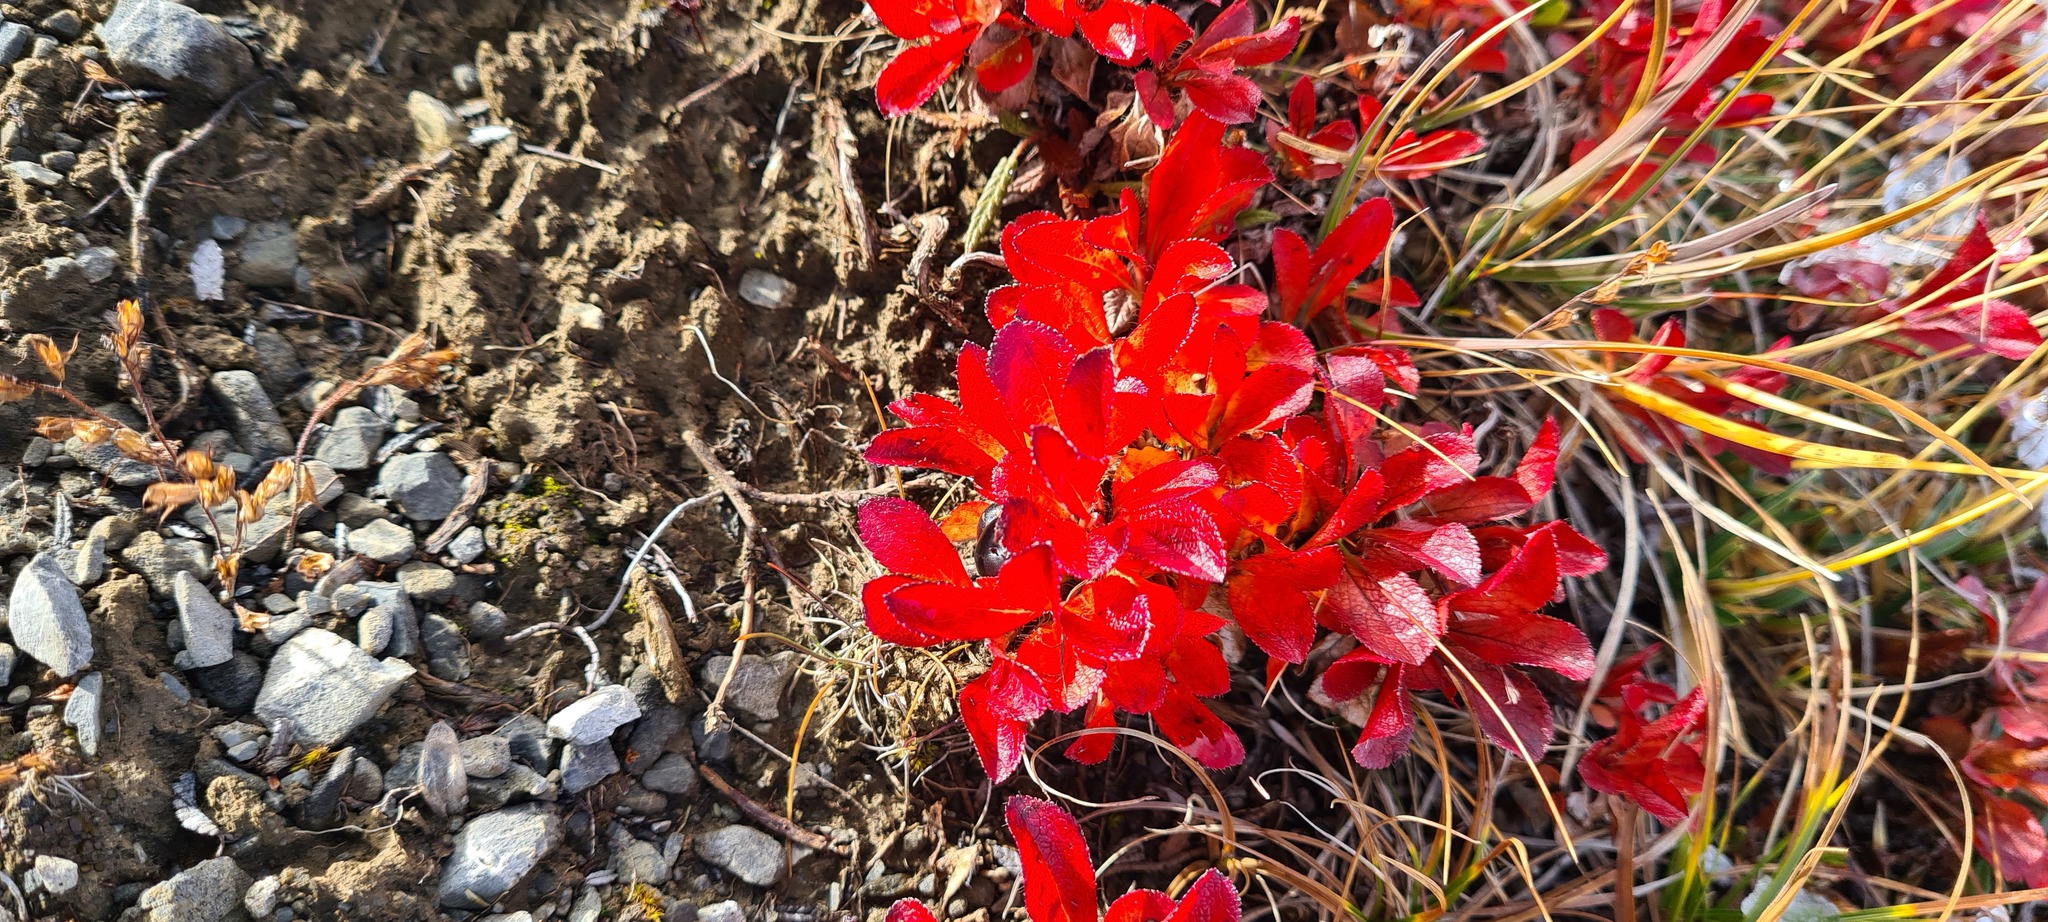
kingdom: Plantae
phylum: Tracheophyta
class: Magnoliopsida
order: Ericales
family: Ericaceae
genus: Arctostaphylos
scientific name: Arctostaphylos alpinus
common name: Alpine bearberry
